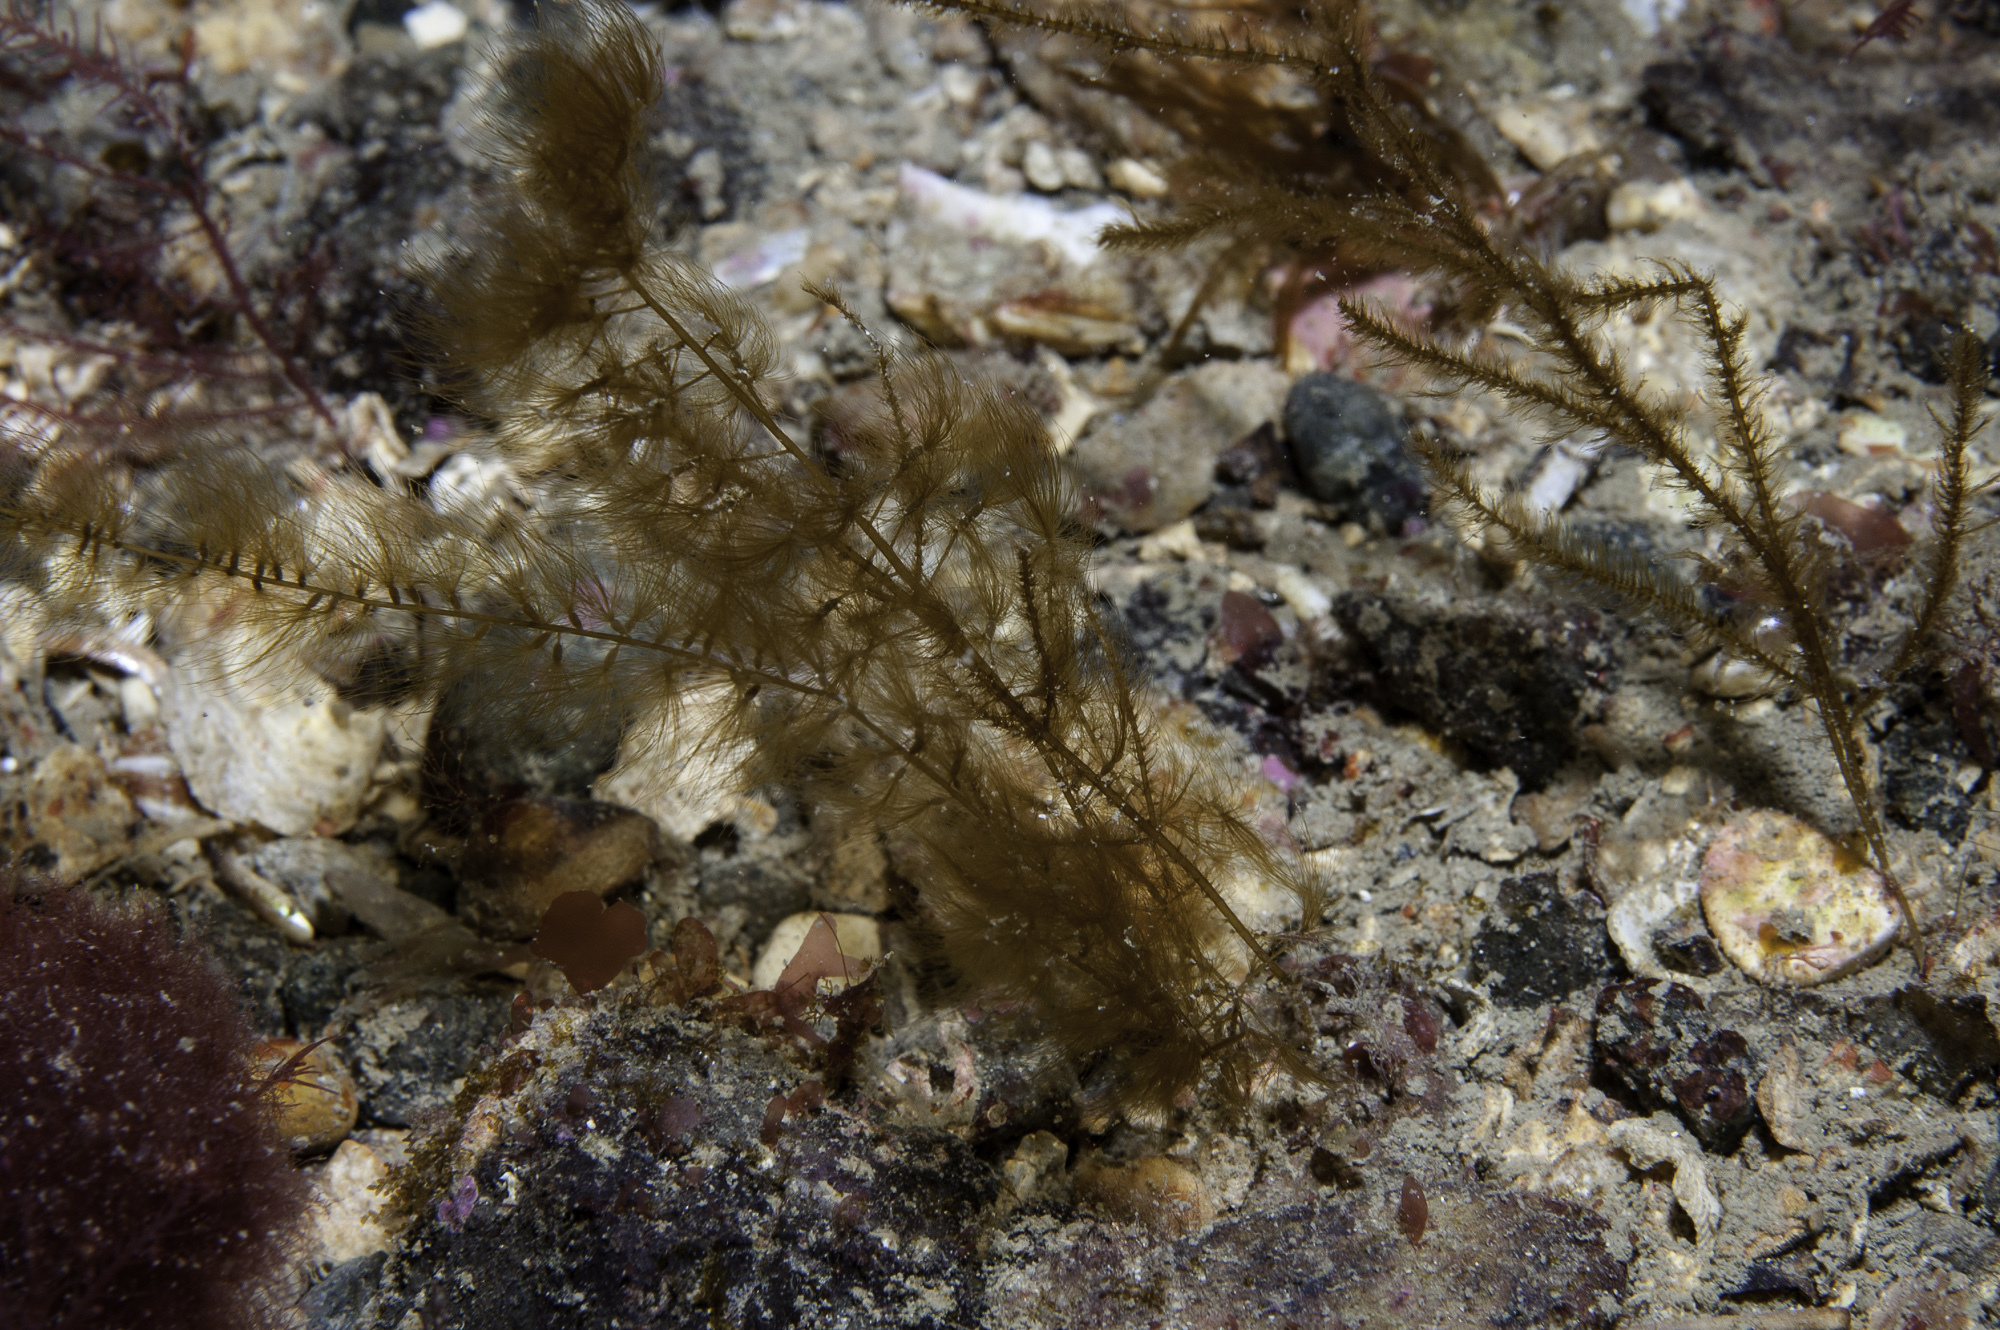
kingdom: Chromista
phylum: Ochrophyta
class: Phaeophyceae
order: Sporochnales
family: Sporochnaceae
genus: Sporochnus
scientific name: Sporochnus pedunculatus
